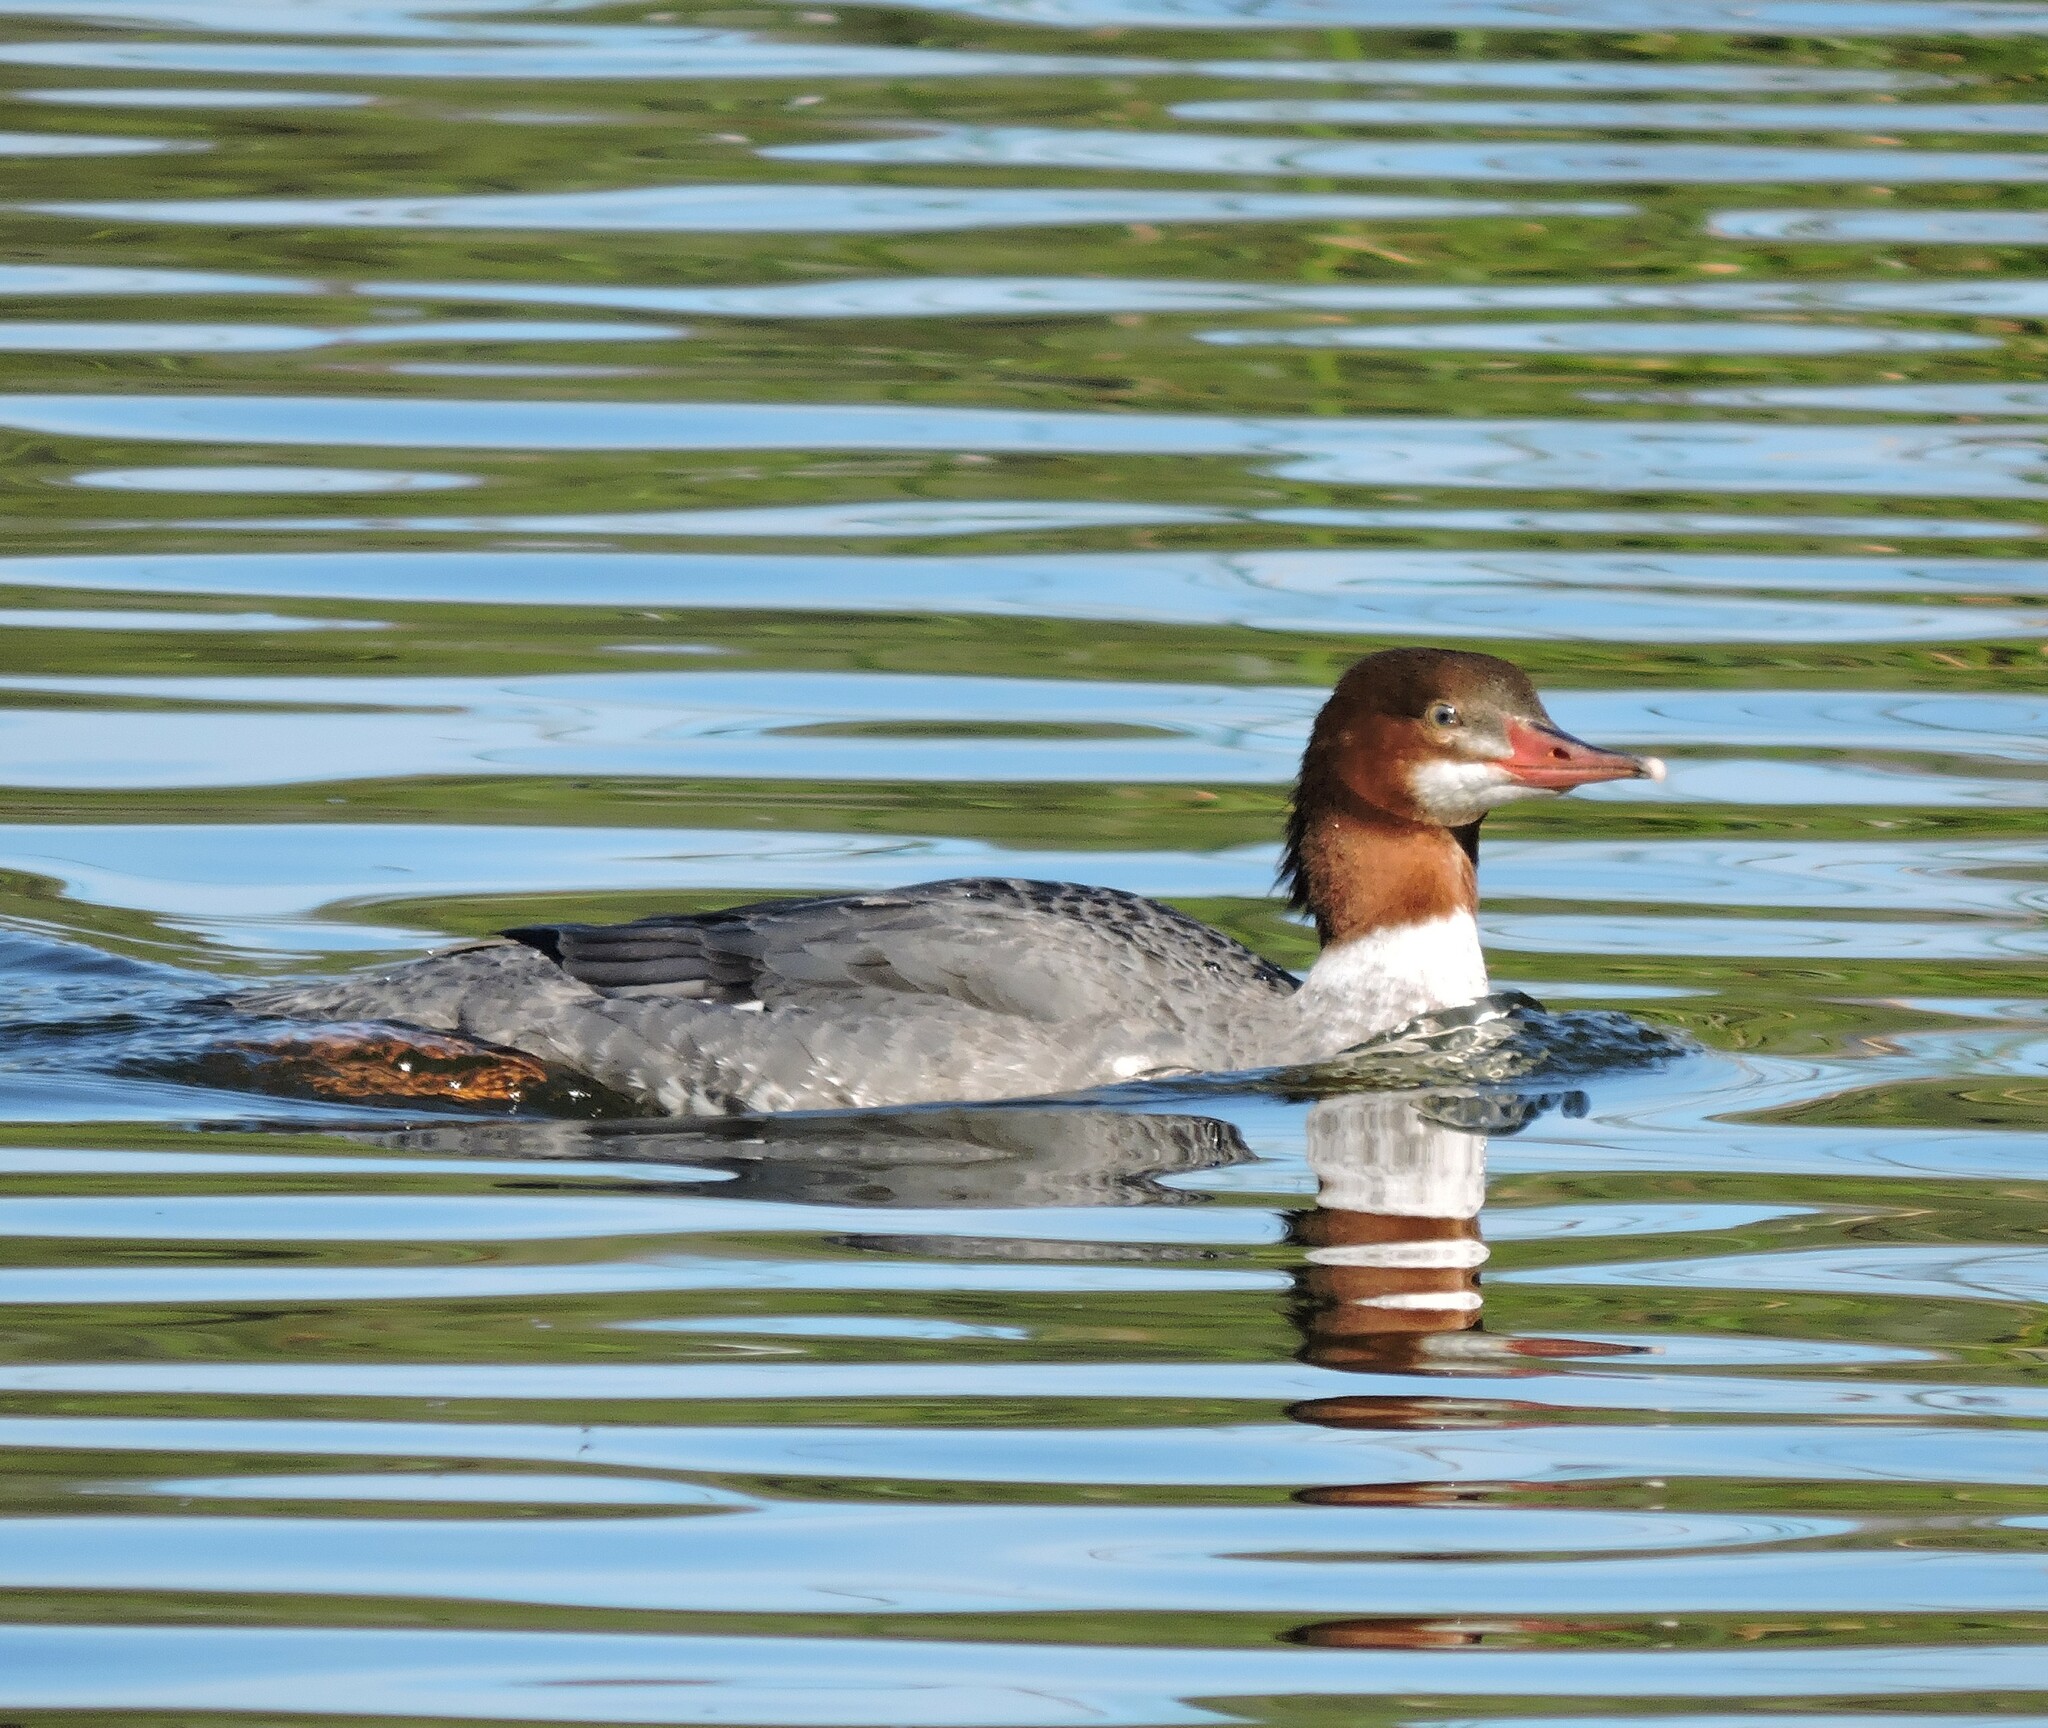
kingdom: Animalia
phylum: Chordata
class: Aves
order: Anseriformes
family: Anatidae
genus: Mergus
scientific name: Mergus merganser
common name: Common merganser
